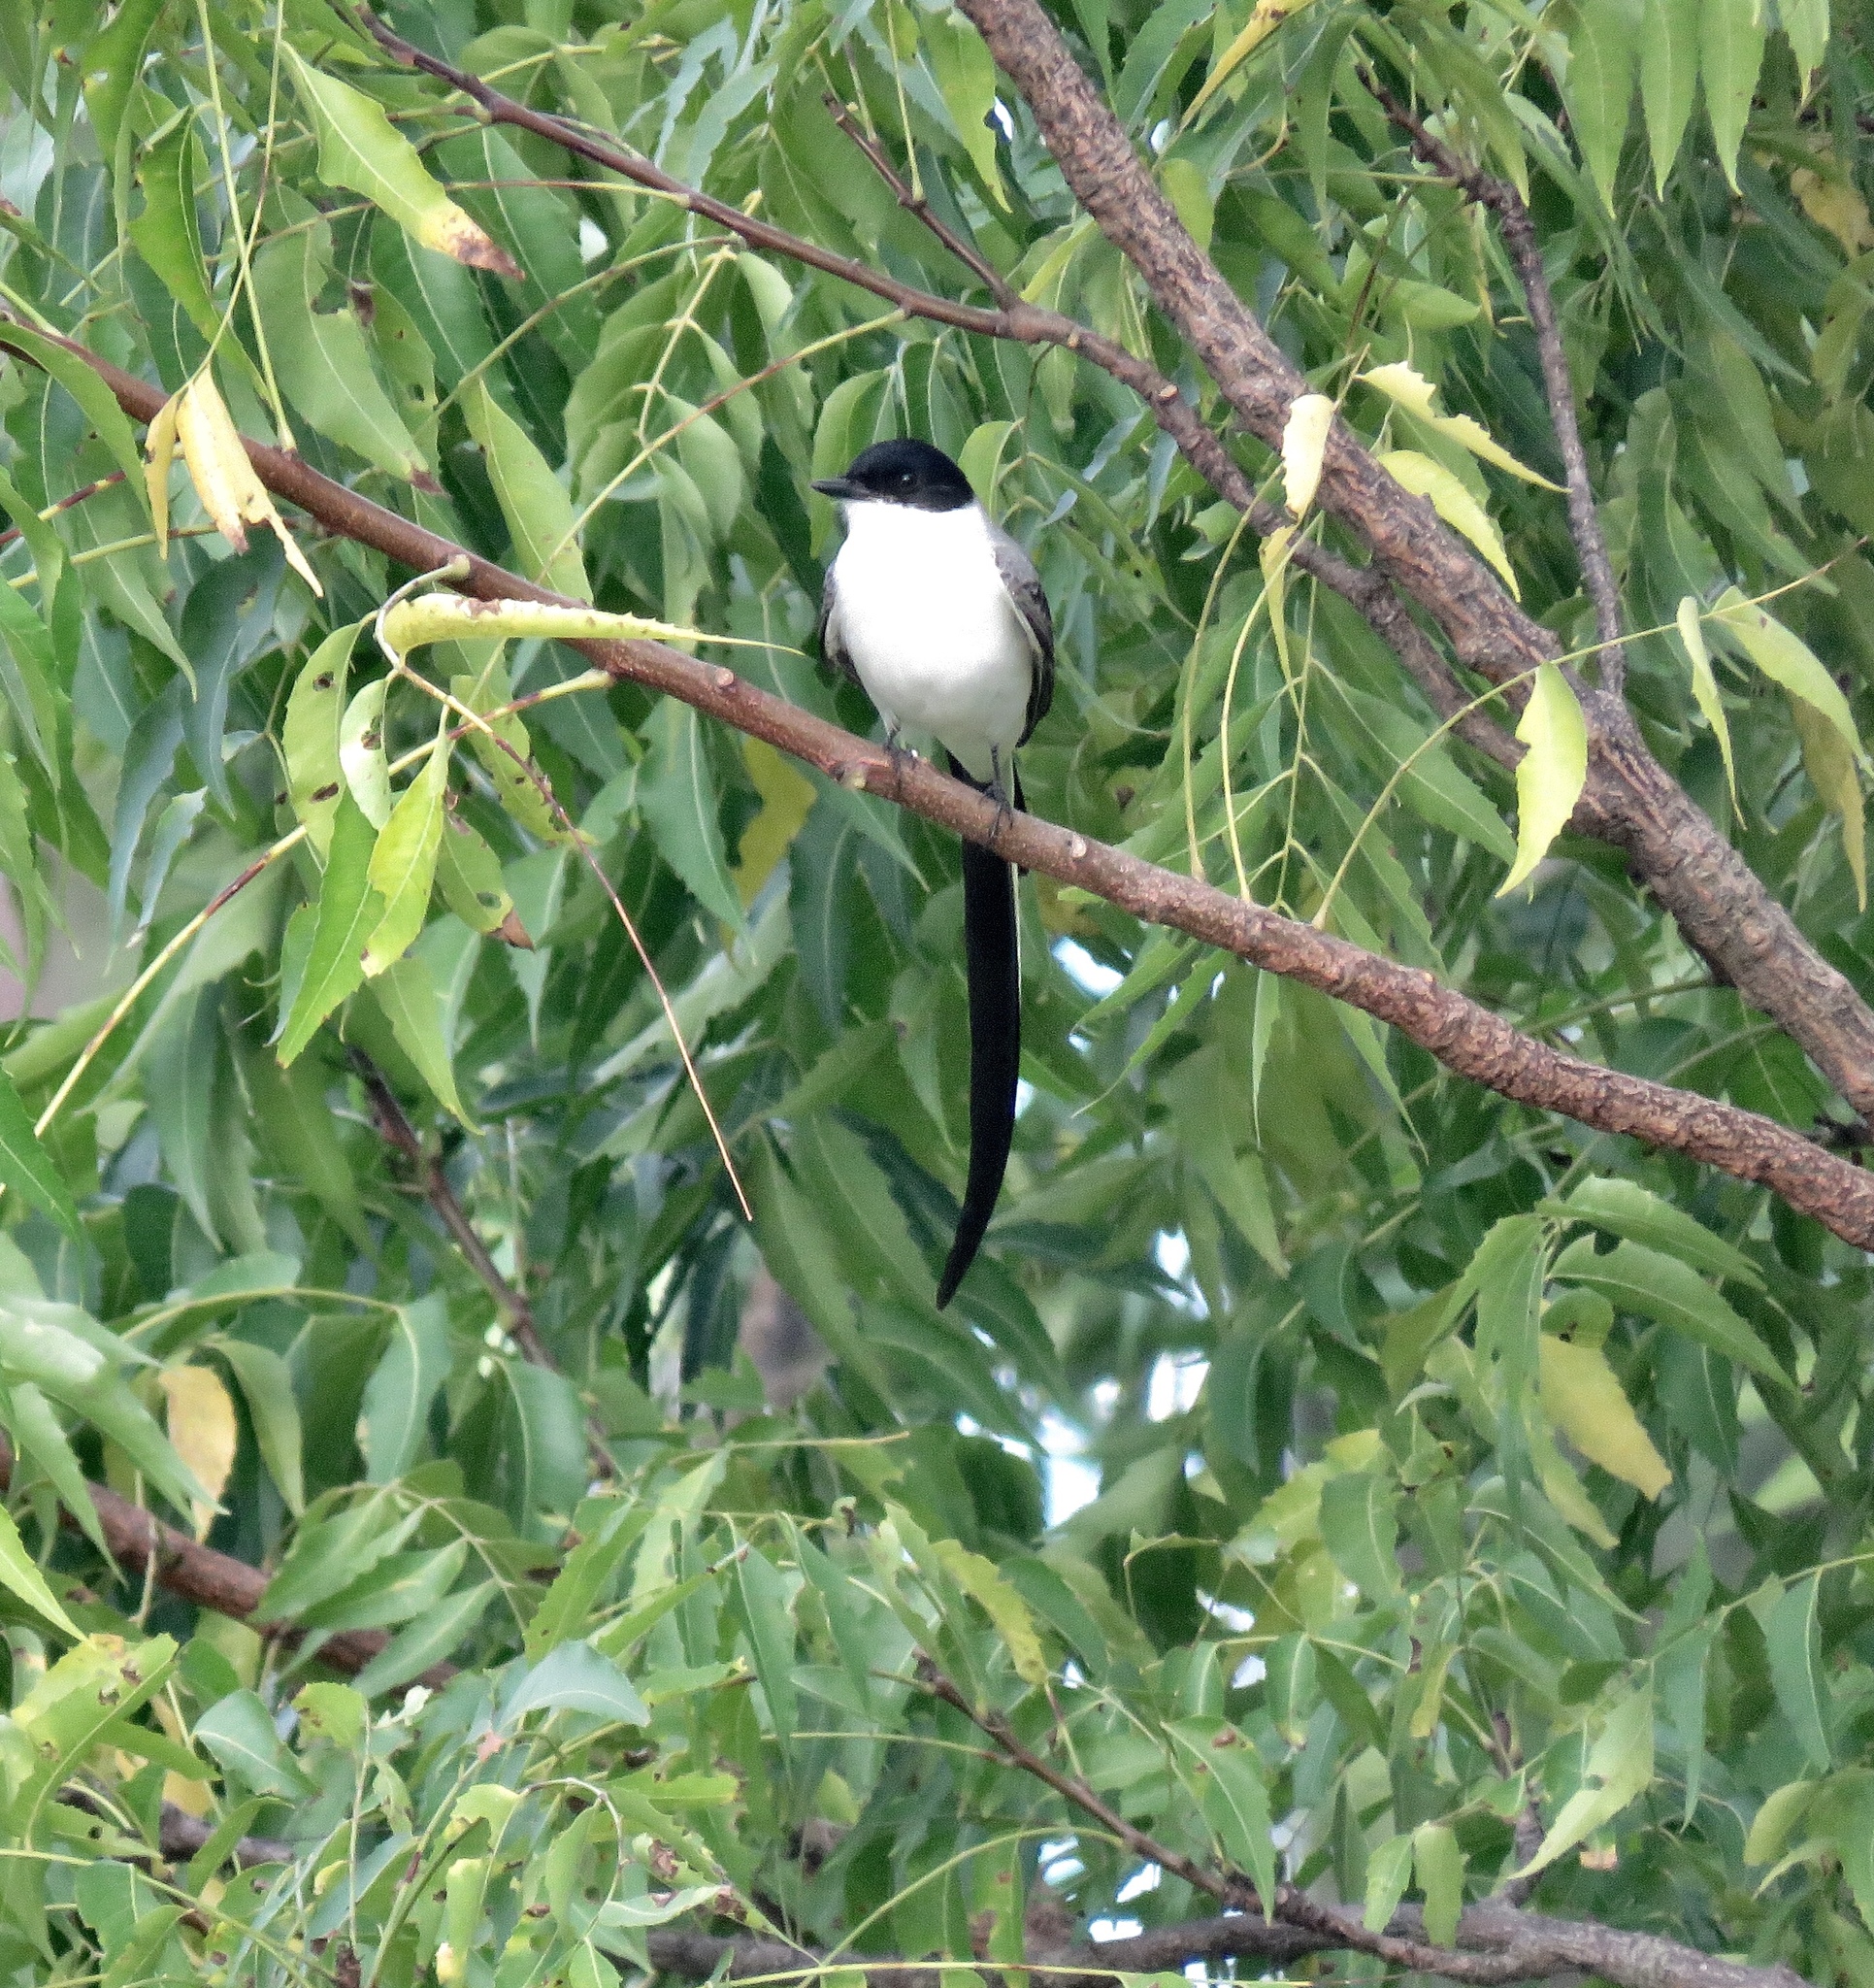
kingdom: Animalia
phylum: Chordata
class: Aves
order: Passeriformes
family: Tyrannidae
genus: Tyrannus
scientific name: Tyrannus savana
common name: Fork-tailed flycatcher
